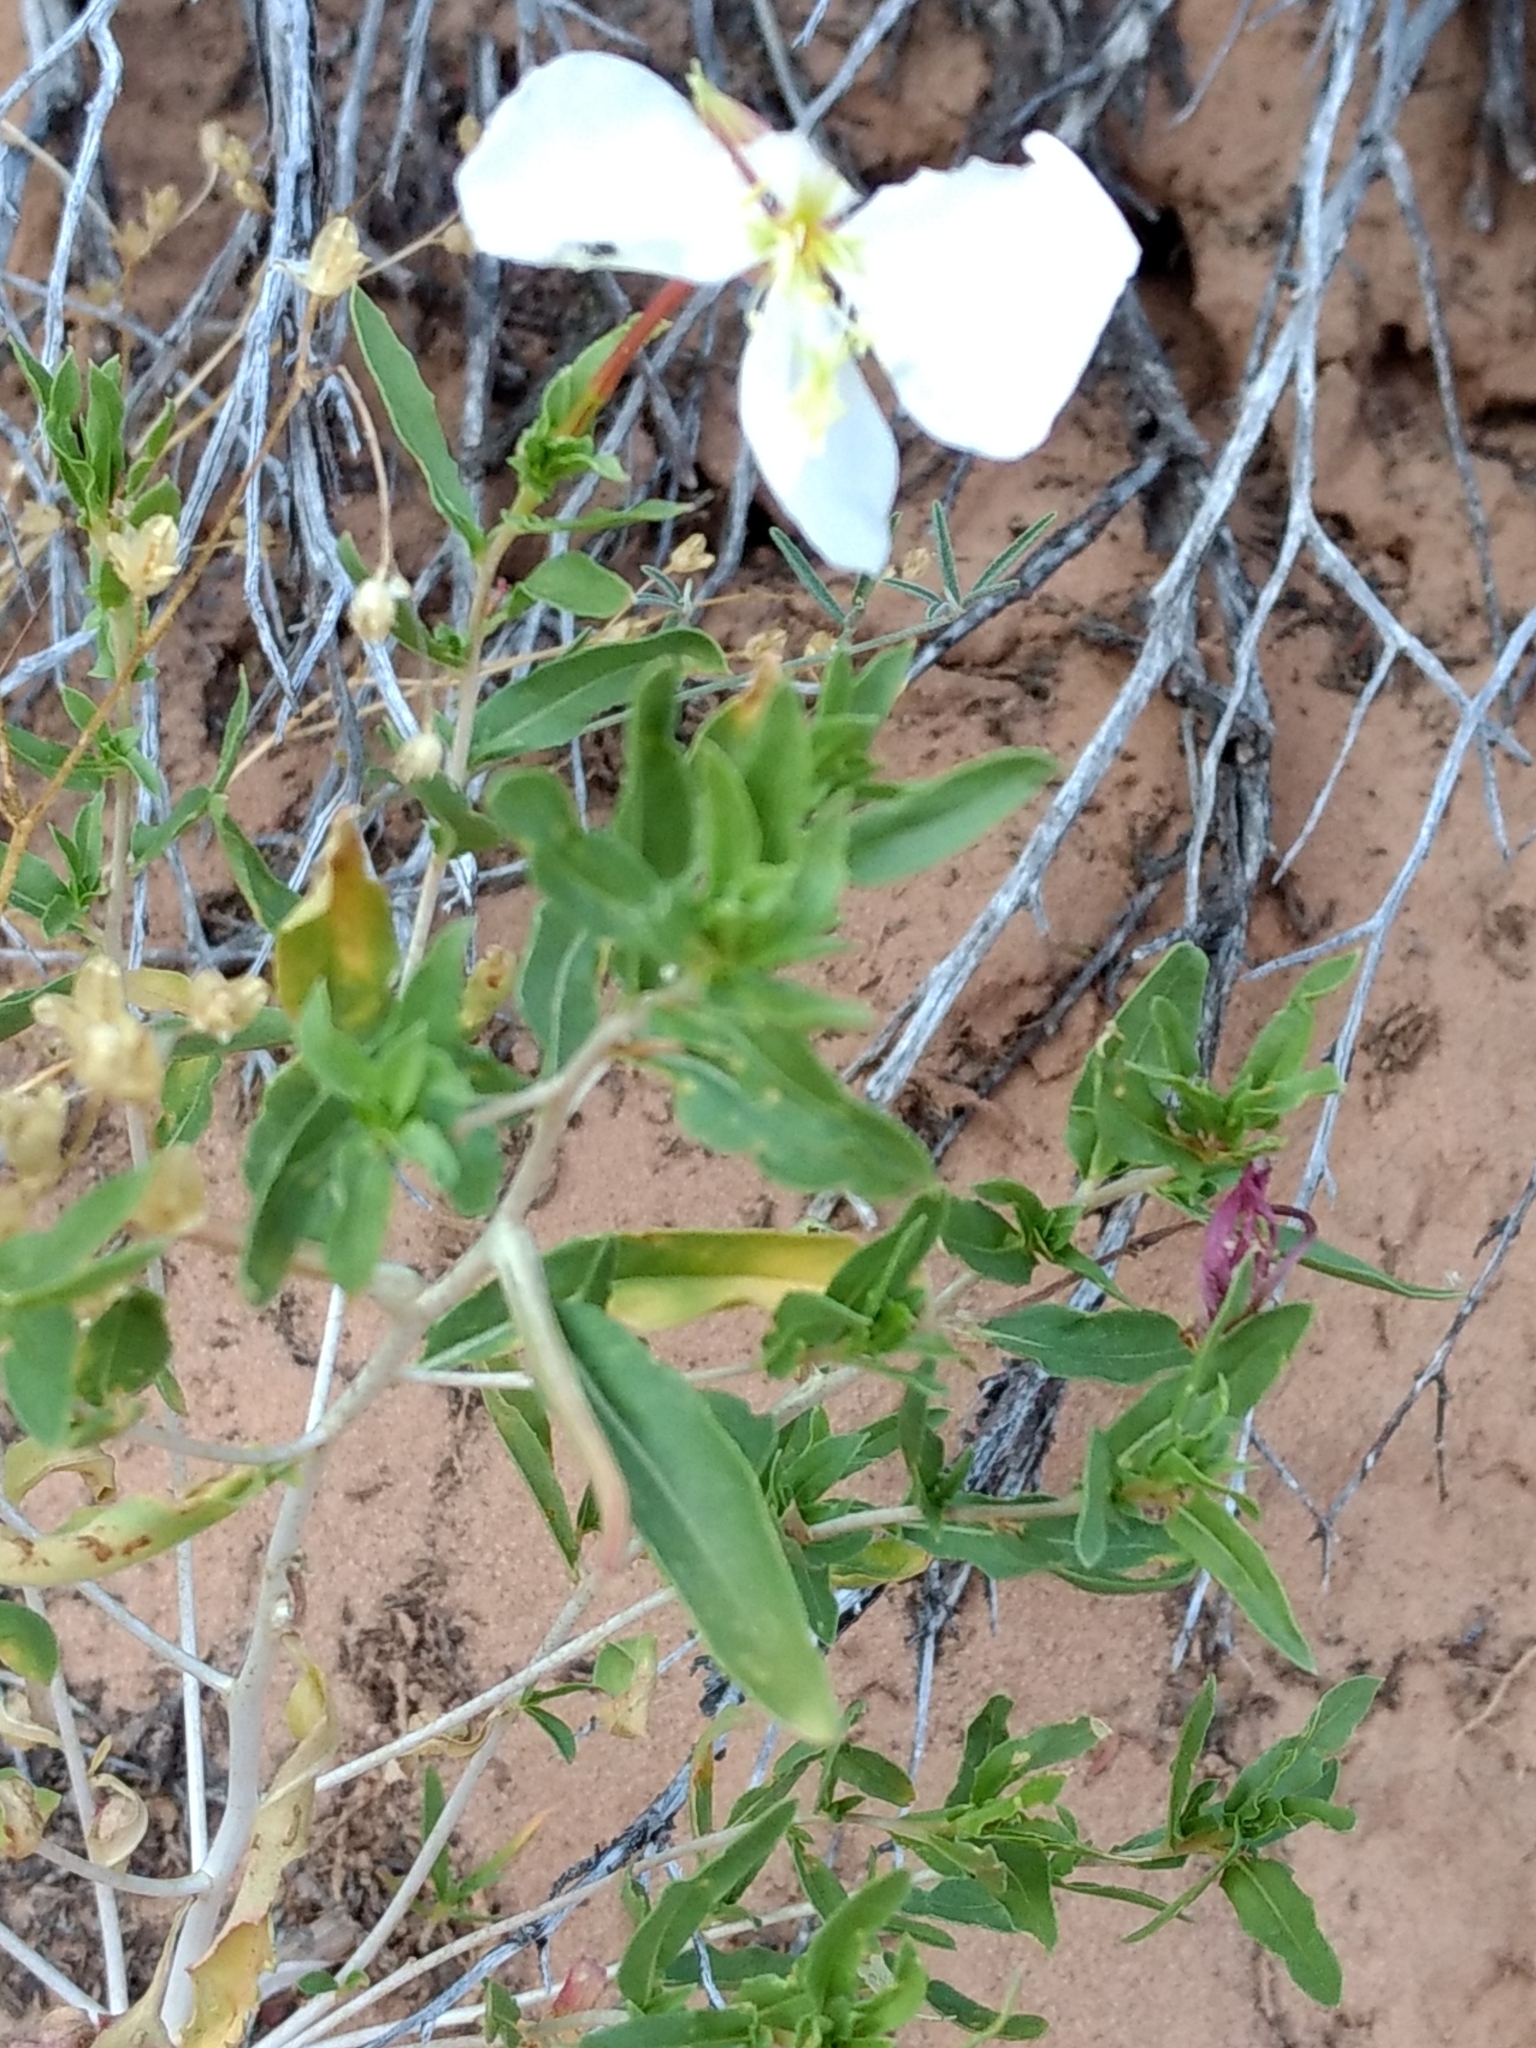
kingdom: Plantae
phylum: Tracheophyta
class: Magnoliopsida
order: Myrtales
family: Onagraceae
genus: Oenothera
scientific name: Oenothera pallida
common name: Pale evening-primrose
